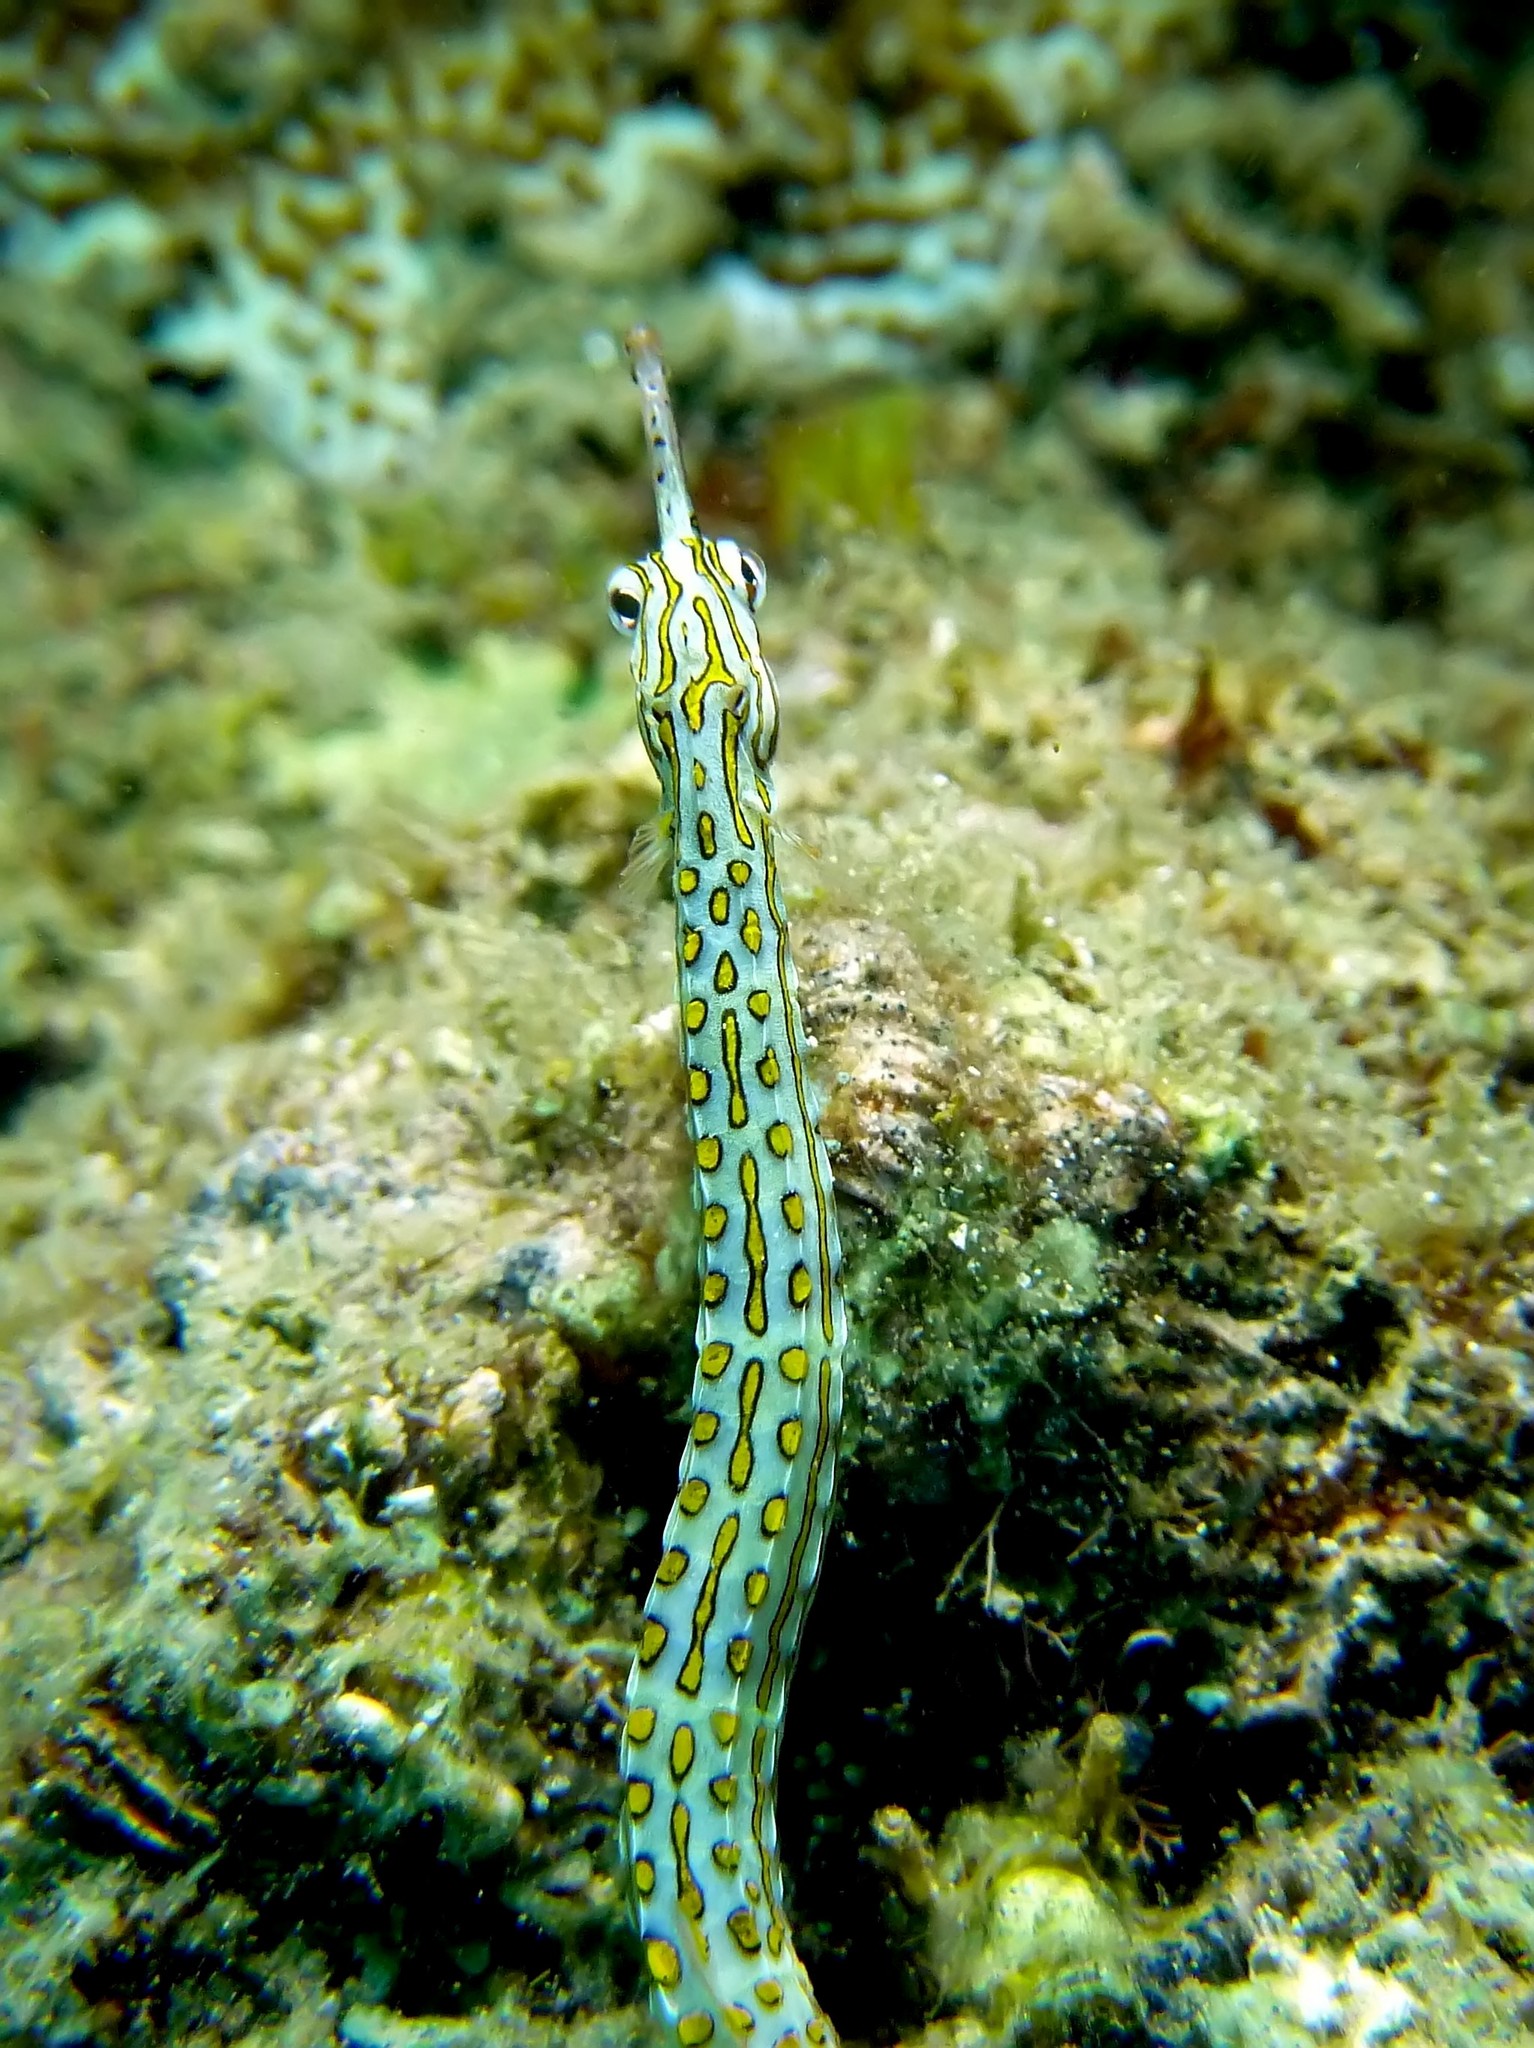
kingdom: Animalia
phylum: Chordata
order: Syngnathiformes
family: Syngnathidae
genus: Corythoichthys
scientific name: Corythoichthys ocellatus
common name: Ocellated pipefish
